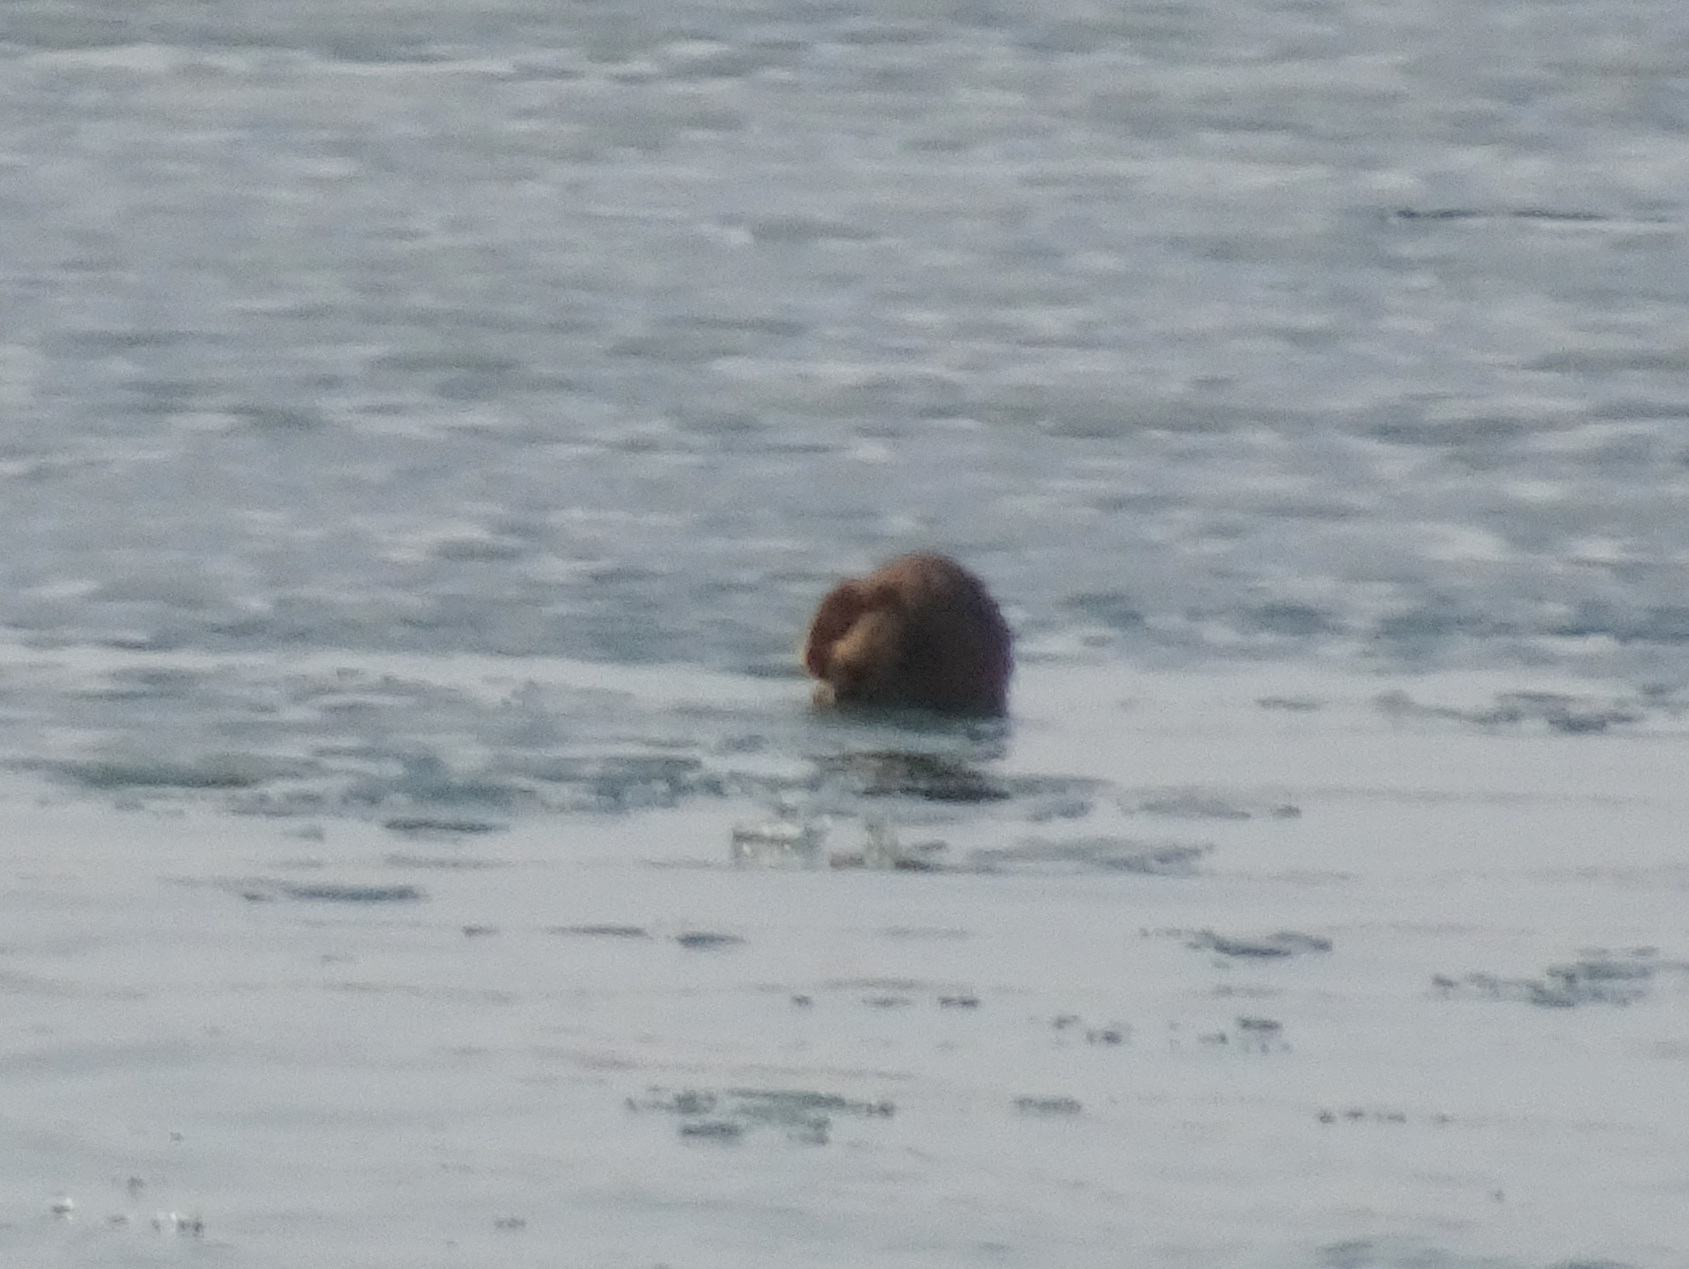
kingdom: Animalia
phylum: Chordata
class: Mammalia
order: Rodentia
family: Cricetidae
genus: Ondatra
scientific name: Ondatra zibethicus
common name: Muskrat
